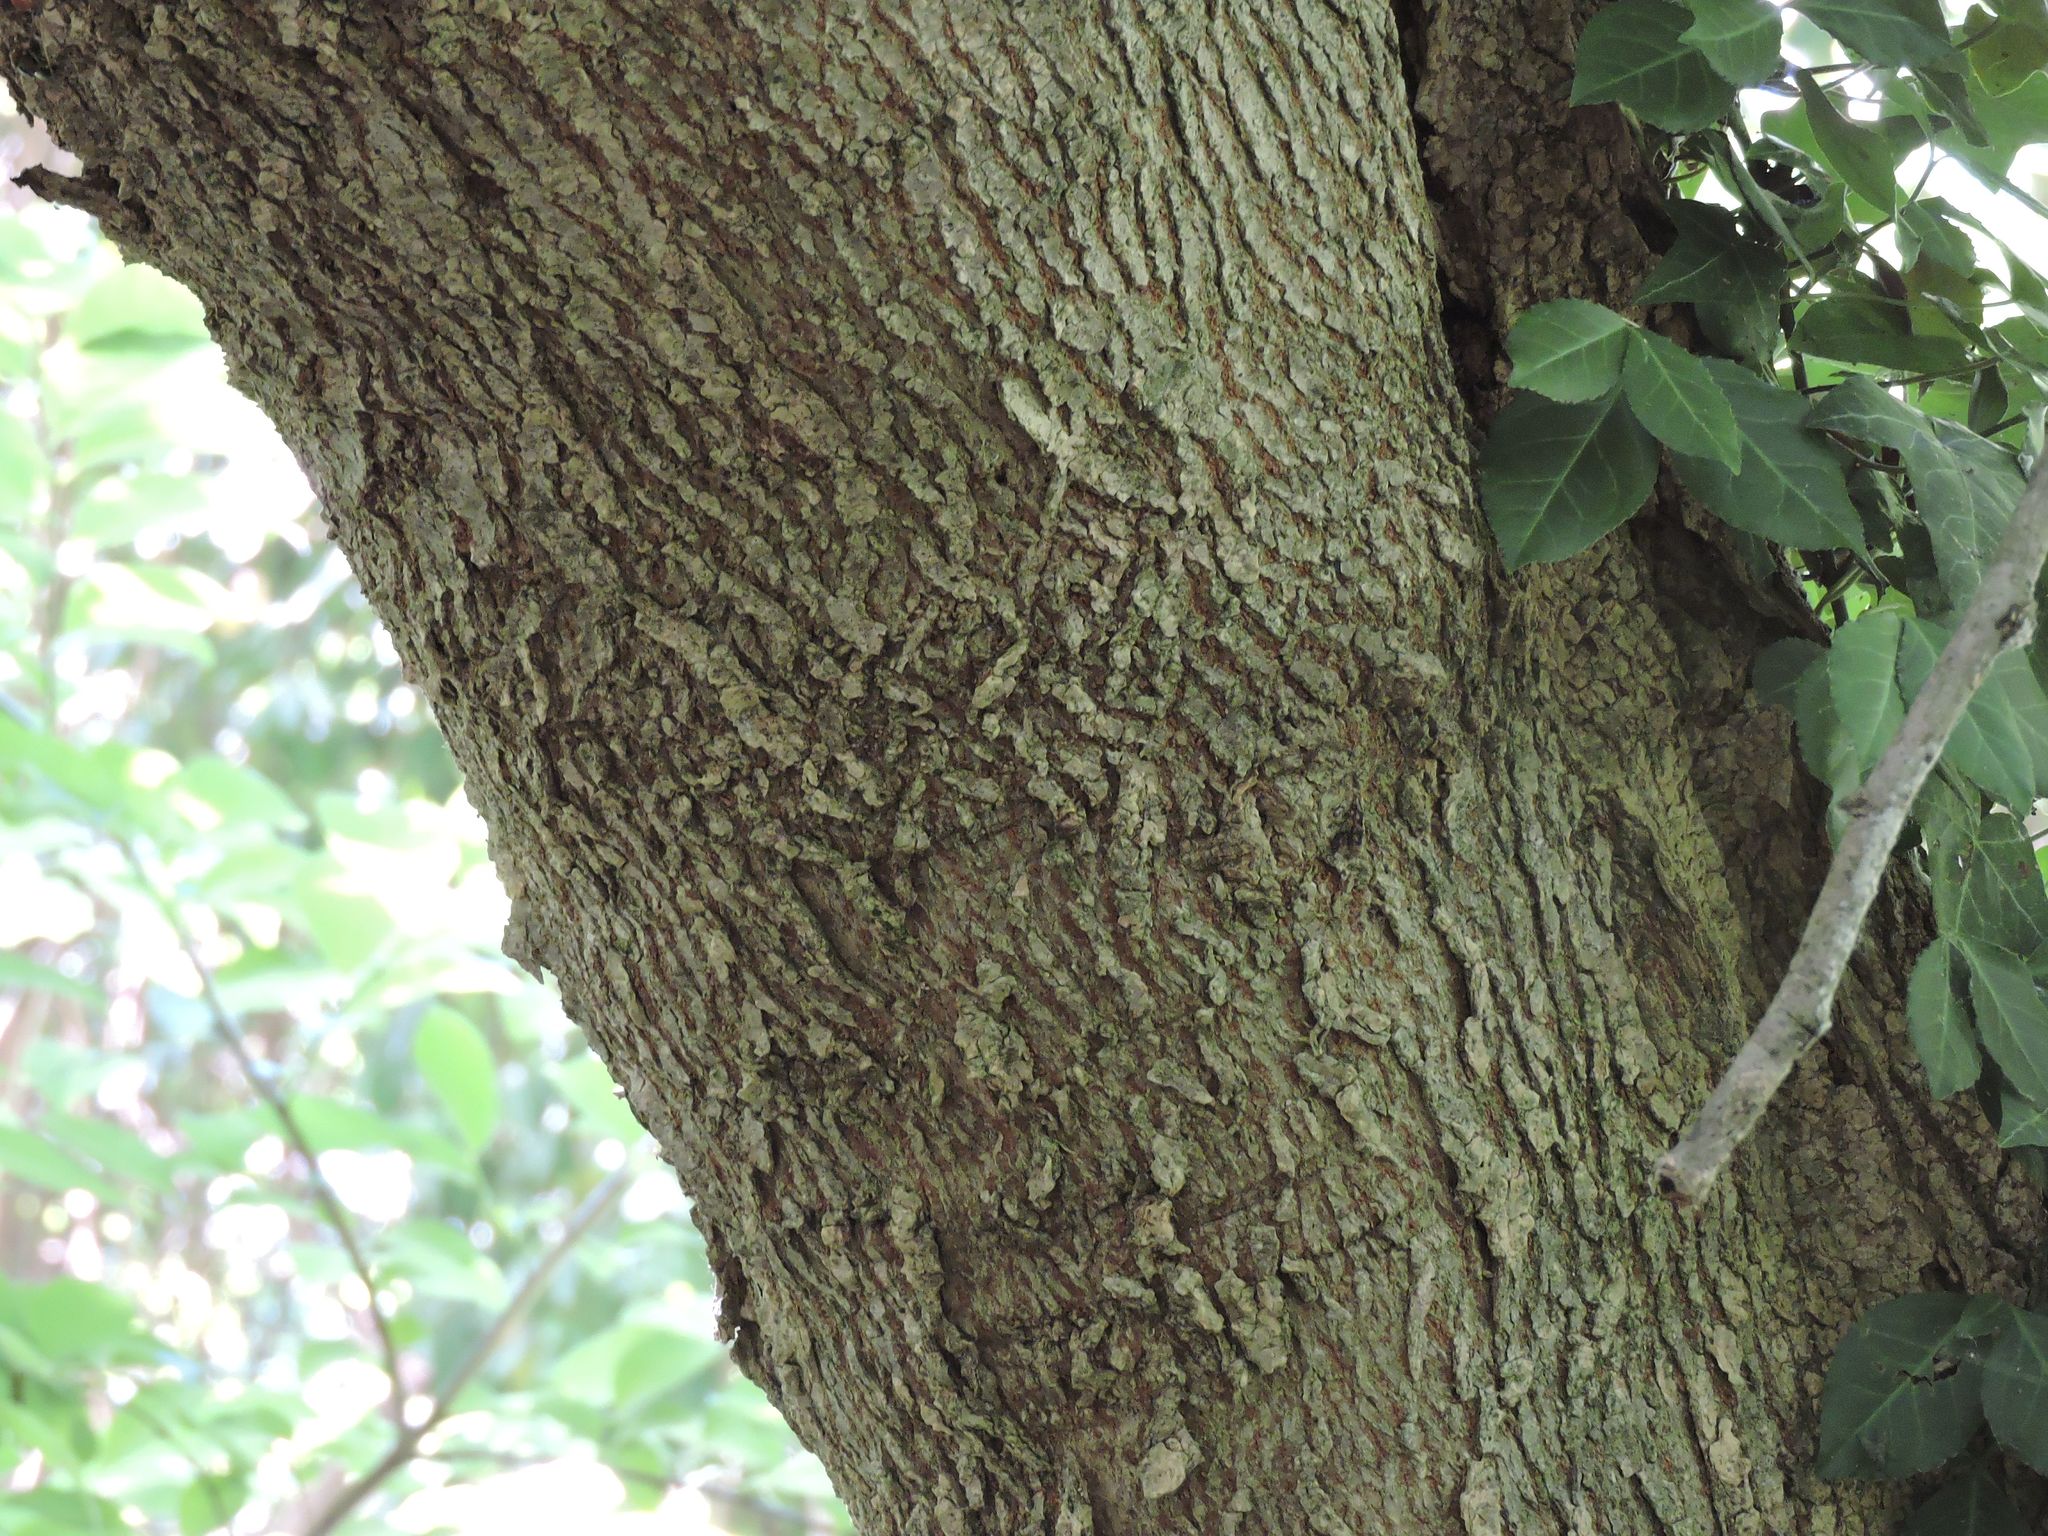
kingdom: Plantae
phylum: Tracheophyta
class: Magnoliopsida
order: Sapindales
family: Sapindaceae
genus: Acer
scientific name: Acer negundo
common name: Ashleaf maple
